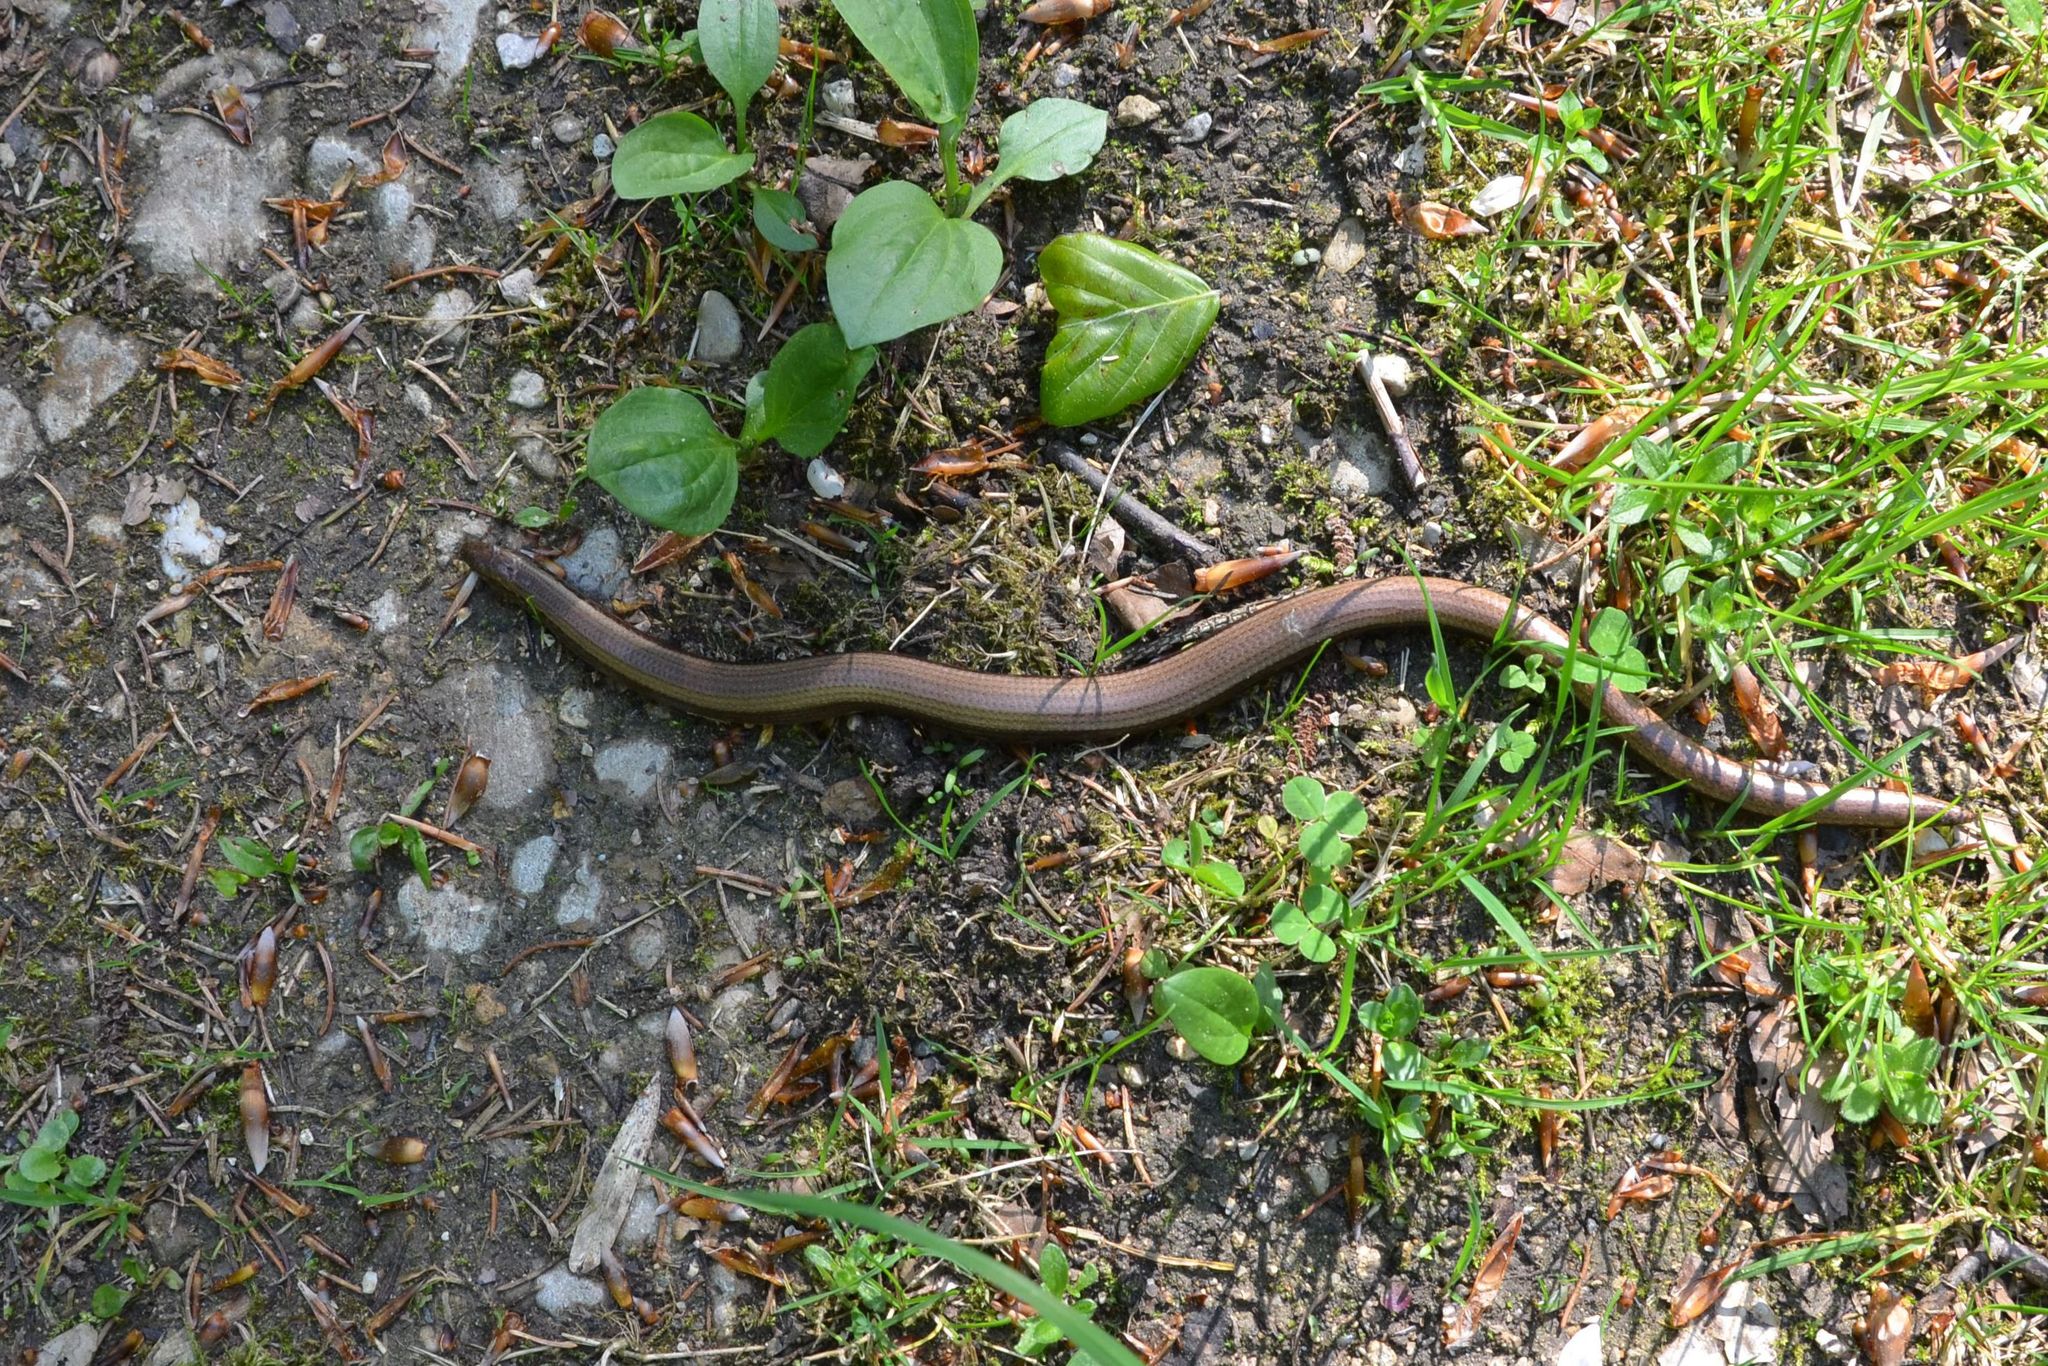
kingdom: Animalia
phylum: Chordata
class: Squamata
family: Anguidae
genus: Anguis
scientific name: Anguis fragilis
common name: Slow worm
